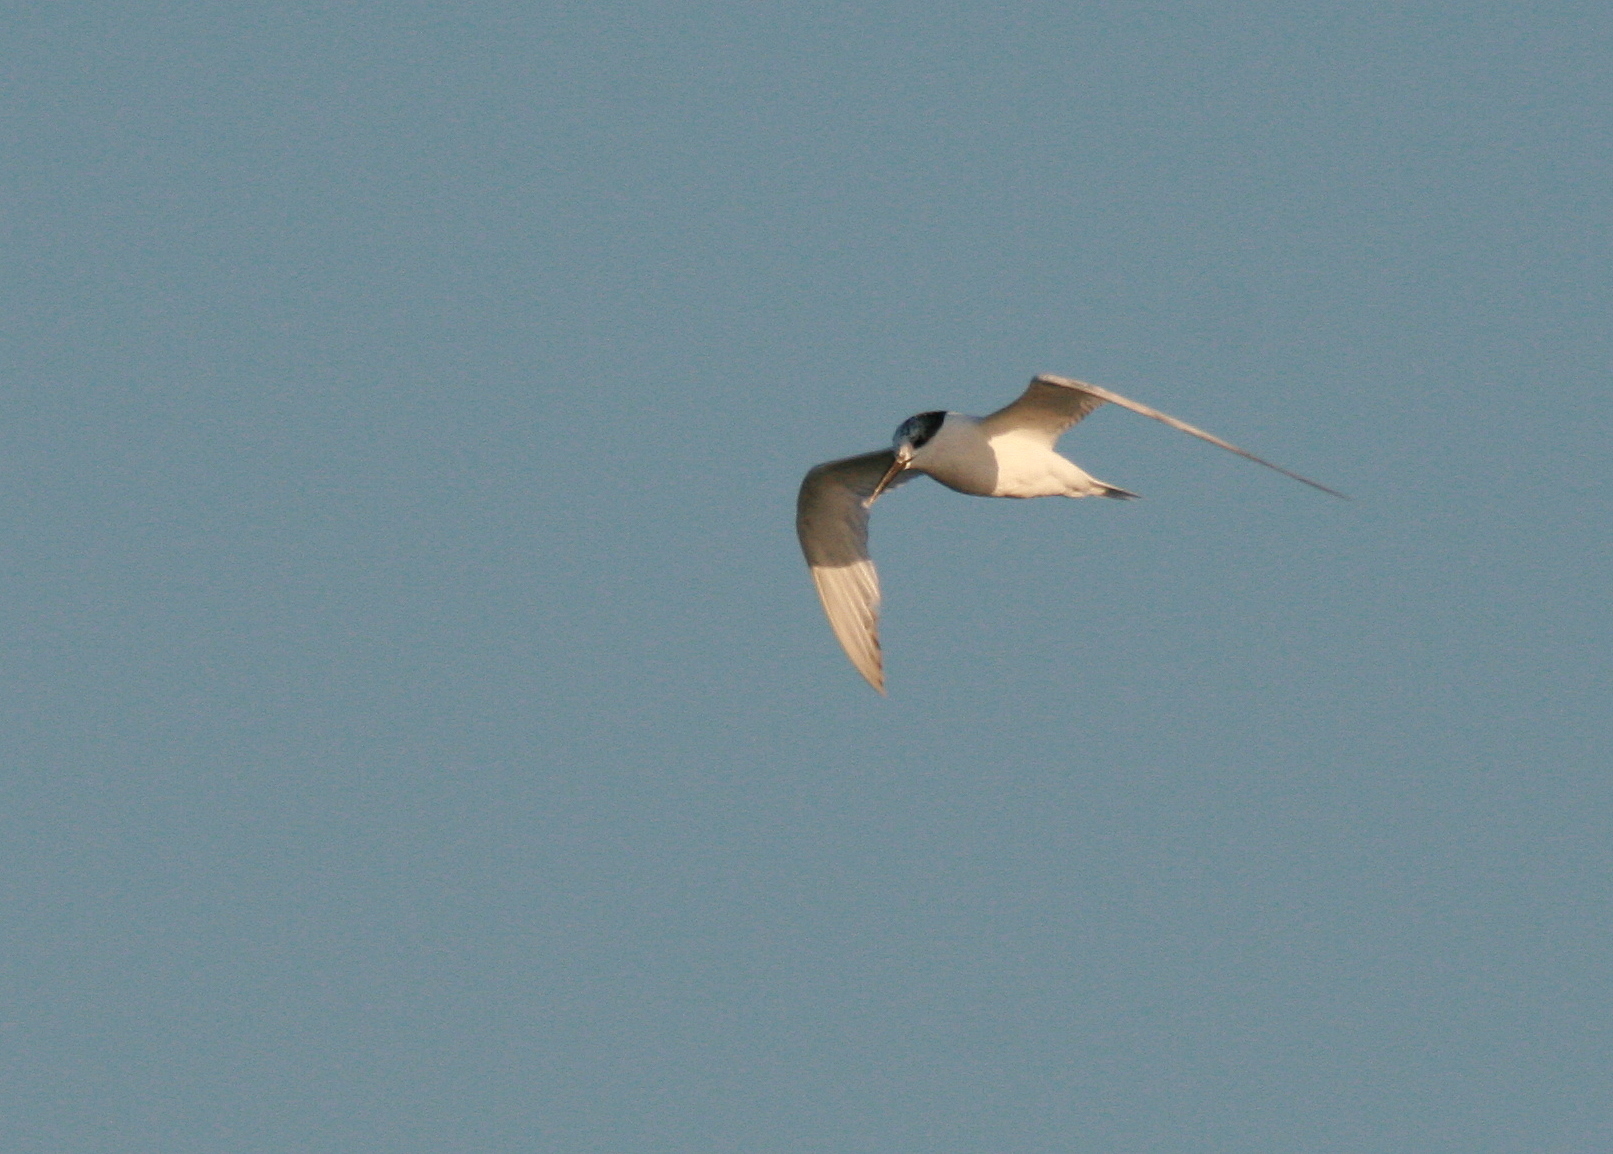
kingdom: Animalia
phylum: Chordata
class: Aves
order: Charadriiformes
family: Laridae
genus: Thalasseus
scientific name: Thalasseus sandvicensis
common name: Sandwich tern
